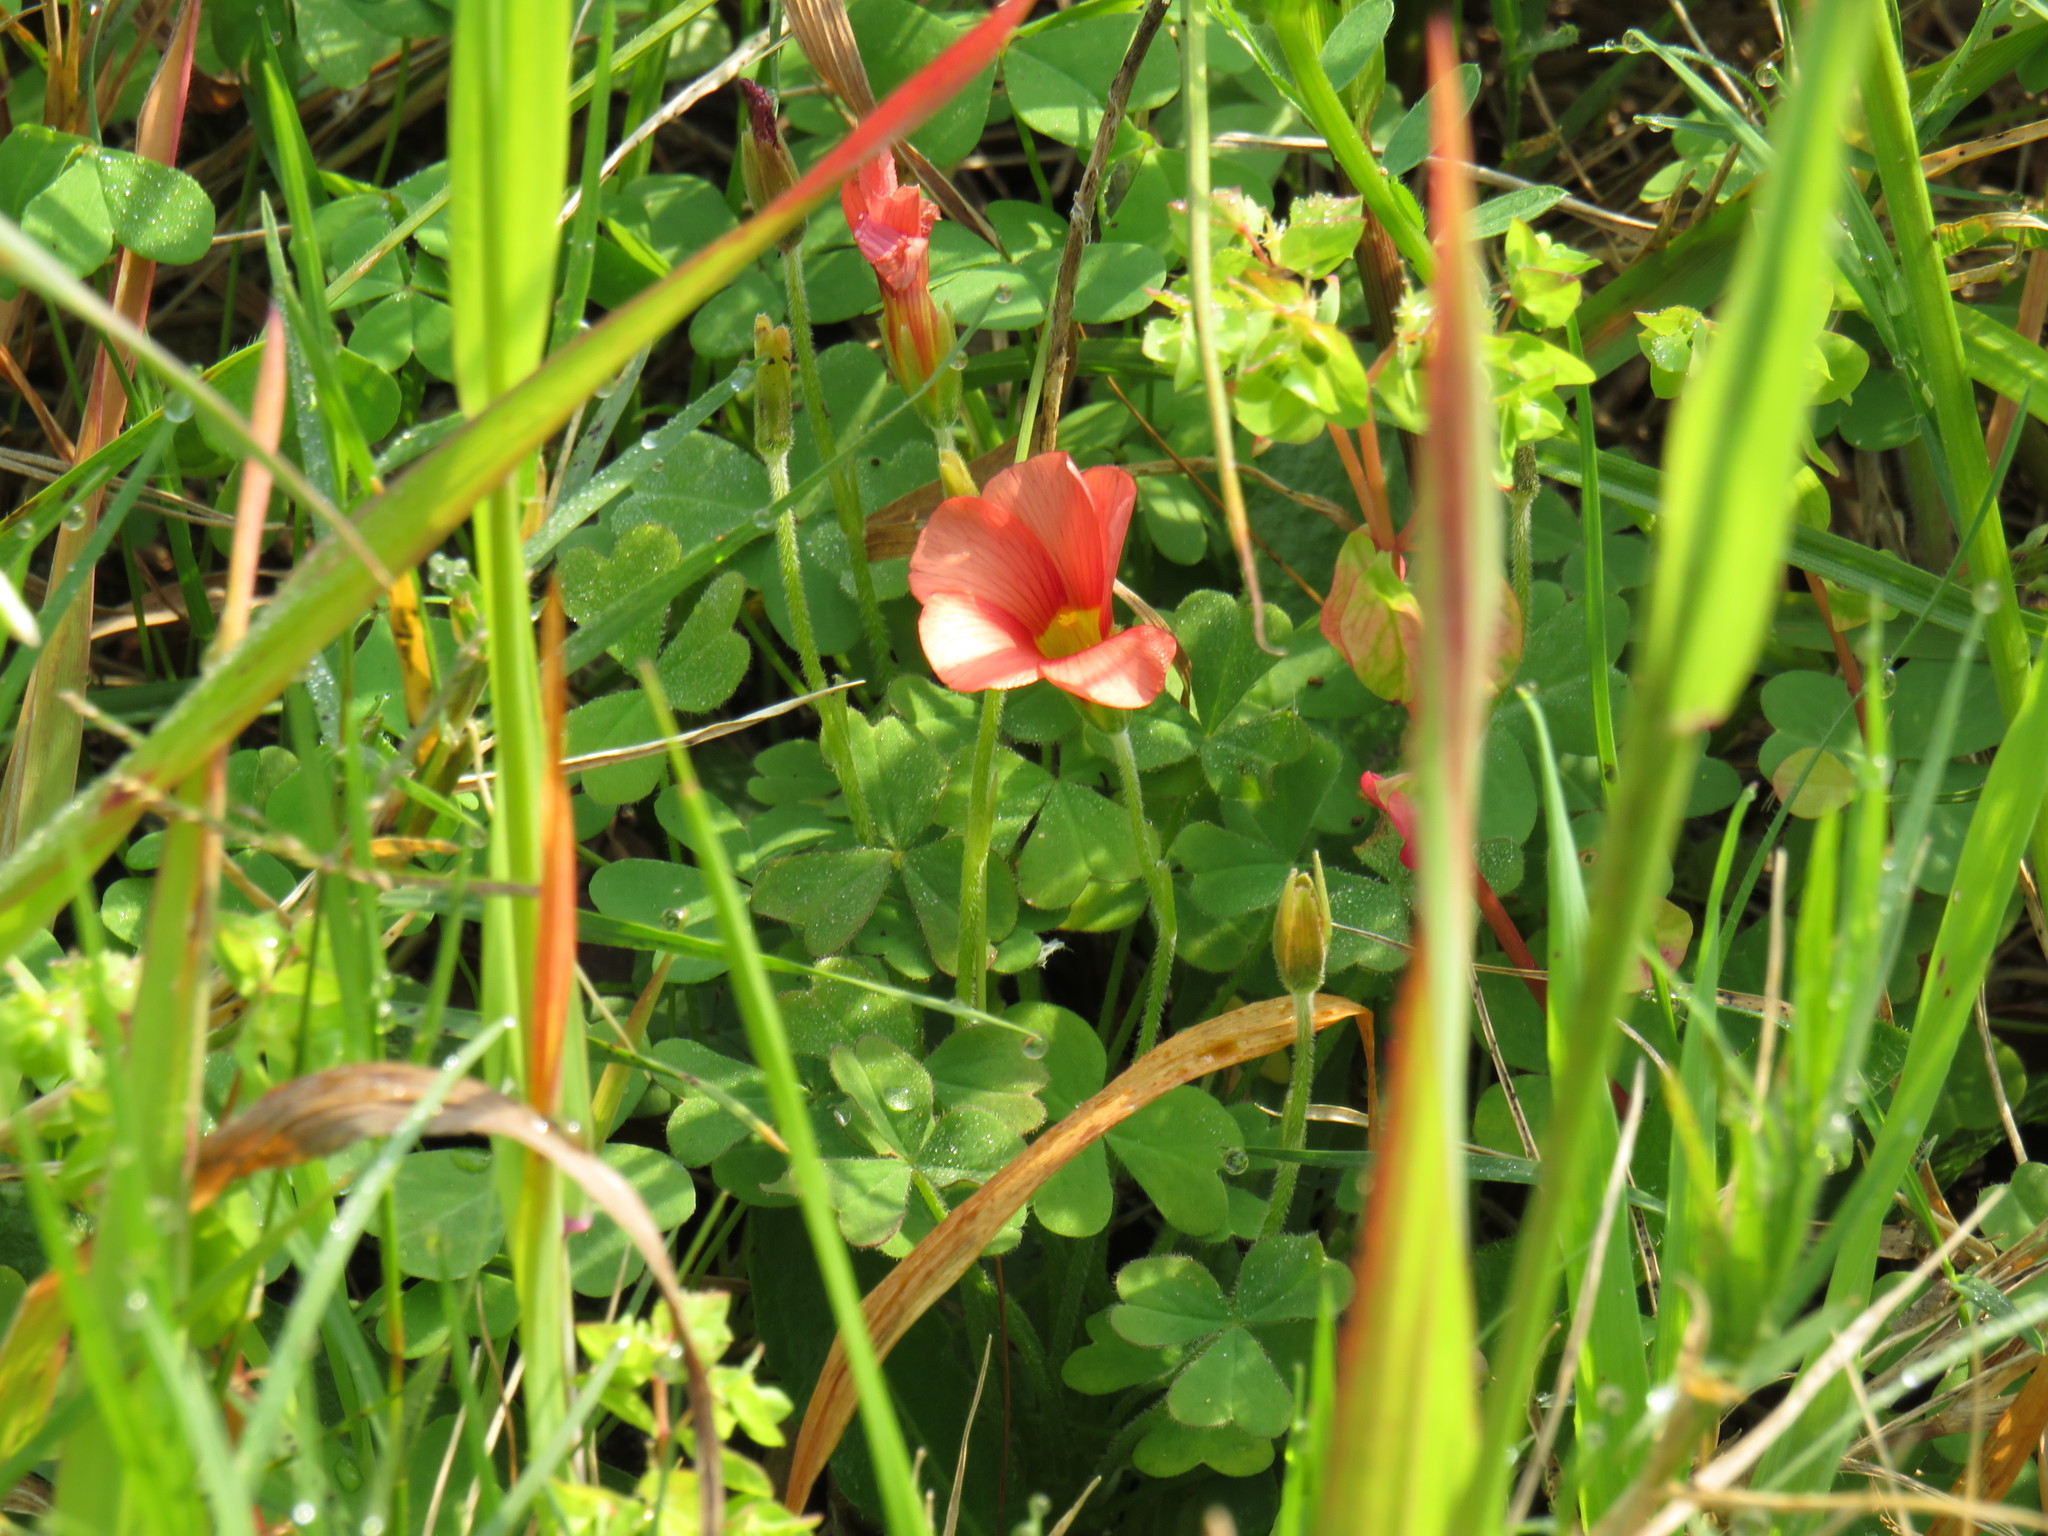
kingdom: Plantae
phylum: Tracheophyta
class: Magnoliopsida
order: Oxalidales
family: Oxalidaceae
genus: Oxalis
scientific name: Oxalis obtusa
